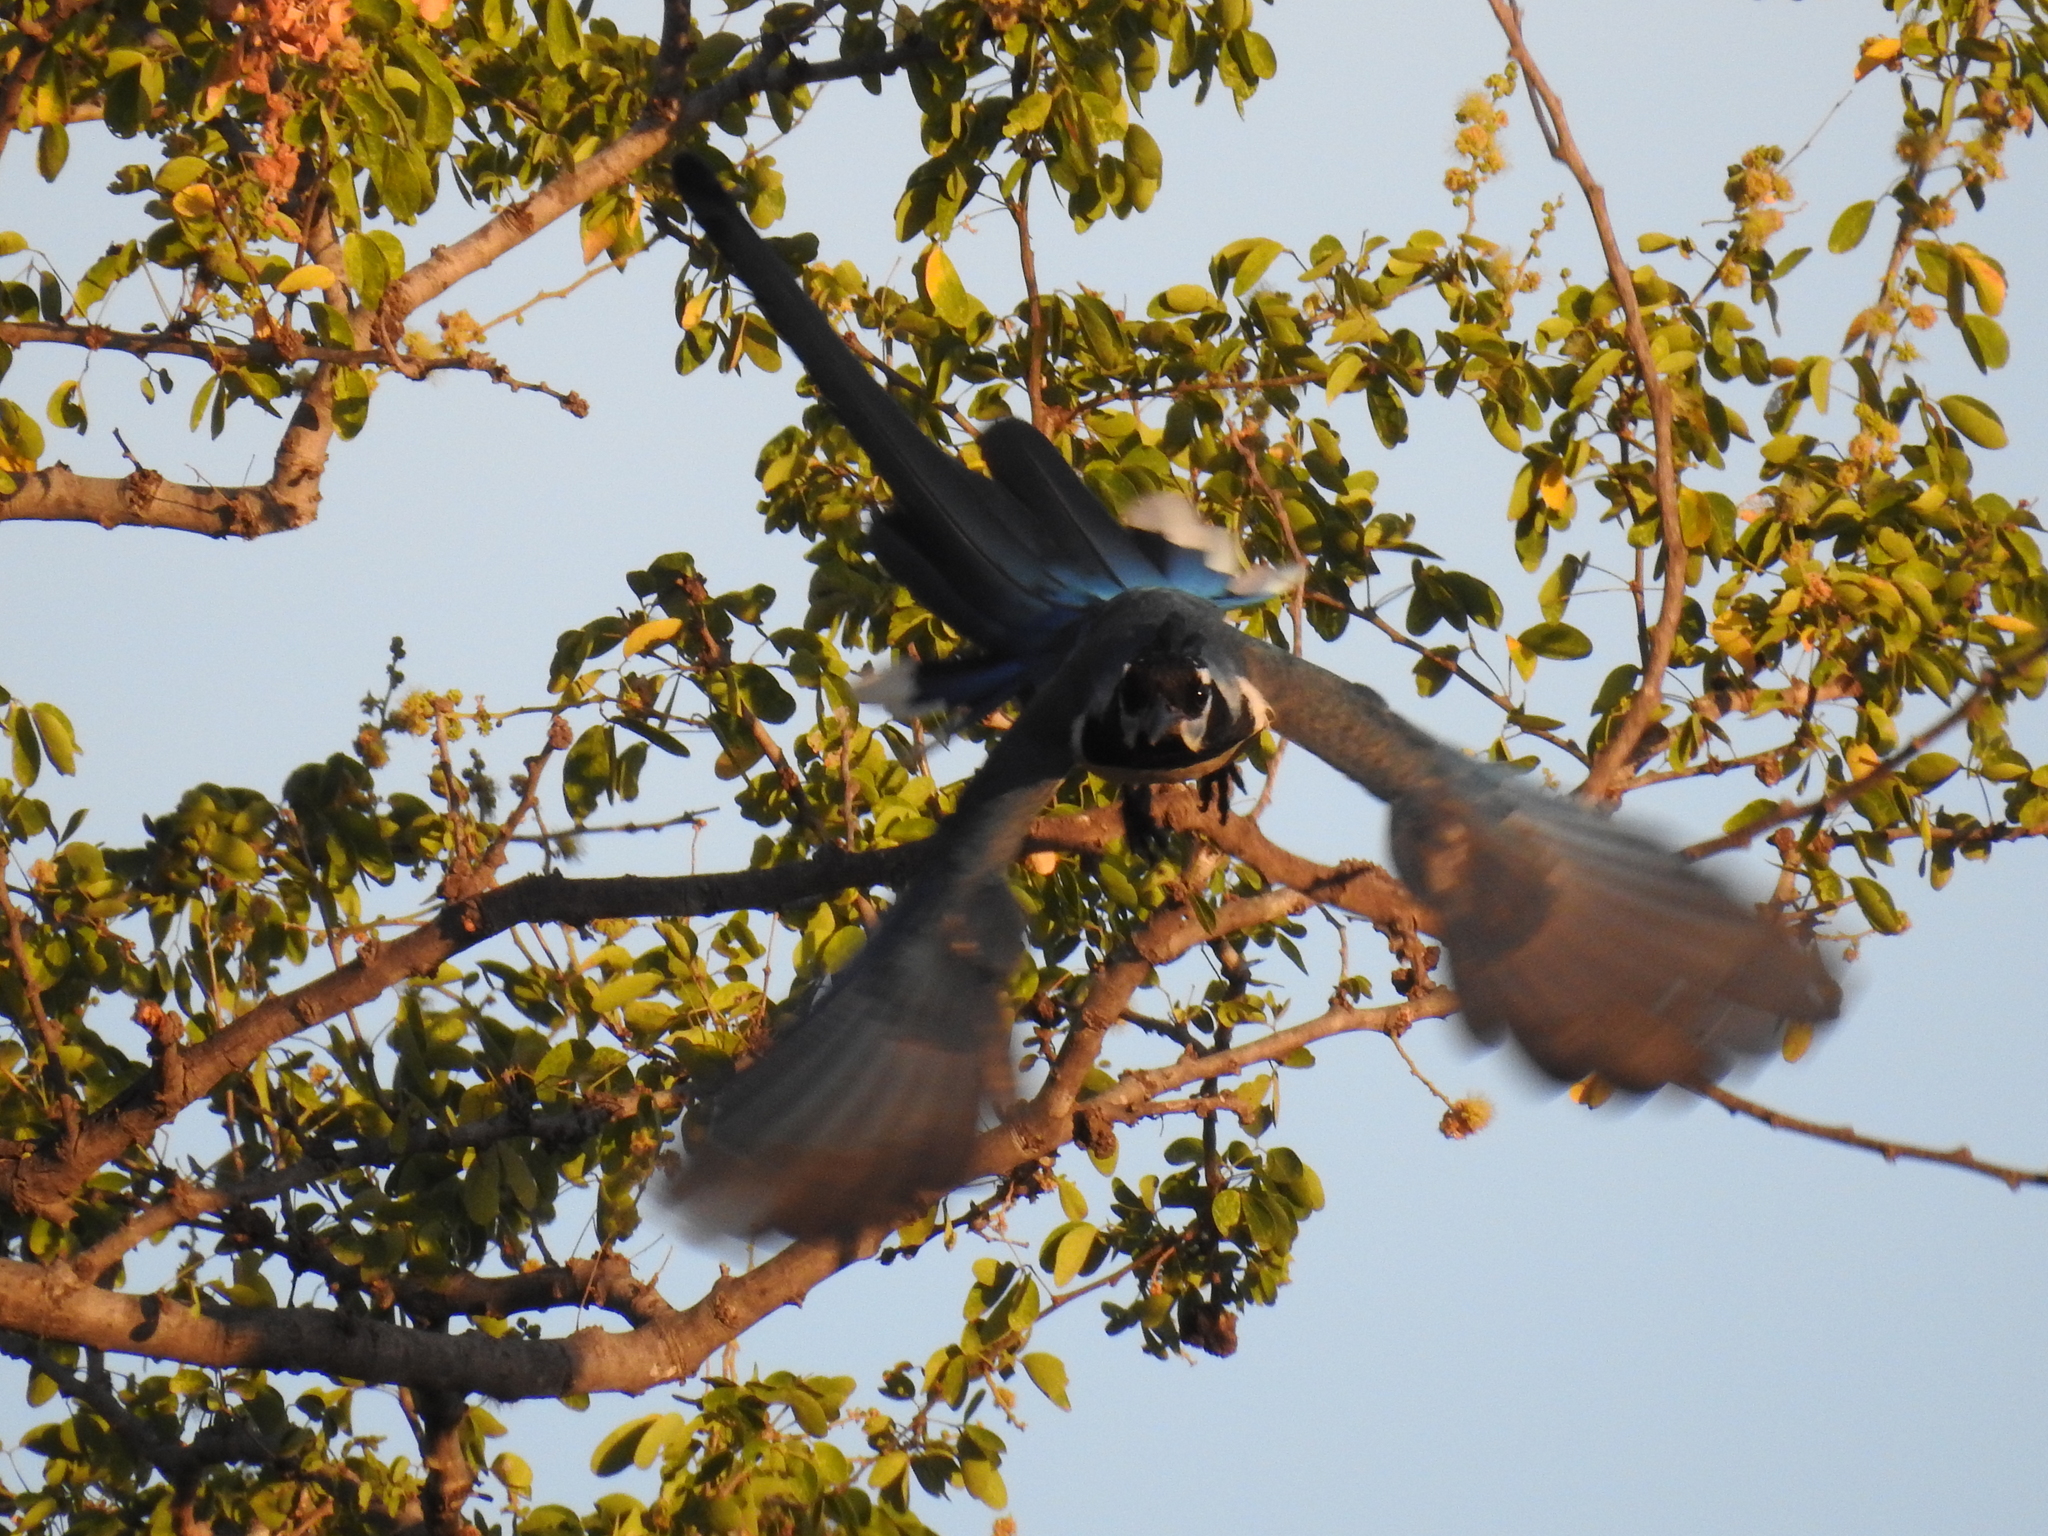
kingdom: Animalia
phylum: Chordata
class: Aves
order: Passeriformes
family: Corvidae
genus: Calocitta
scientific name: Calocitta colliei
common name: Black-throated magpie-jay
